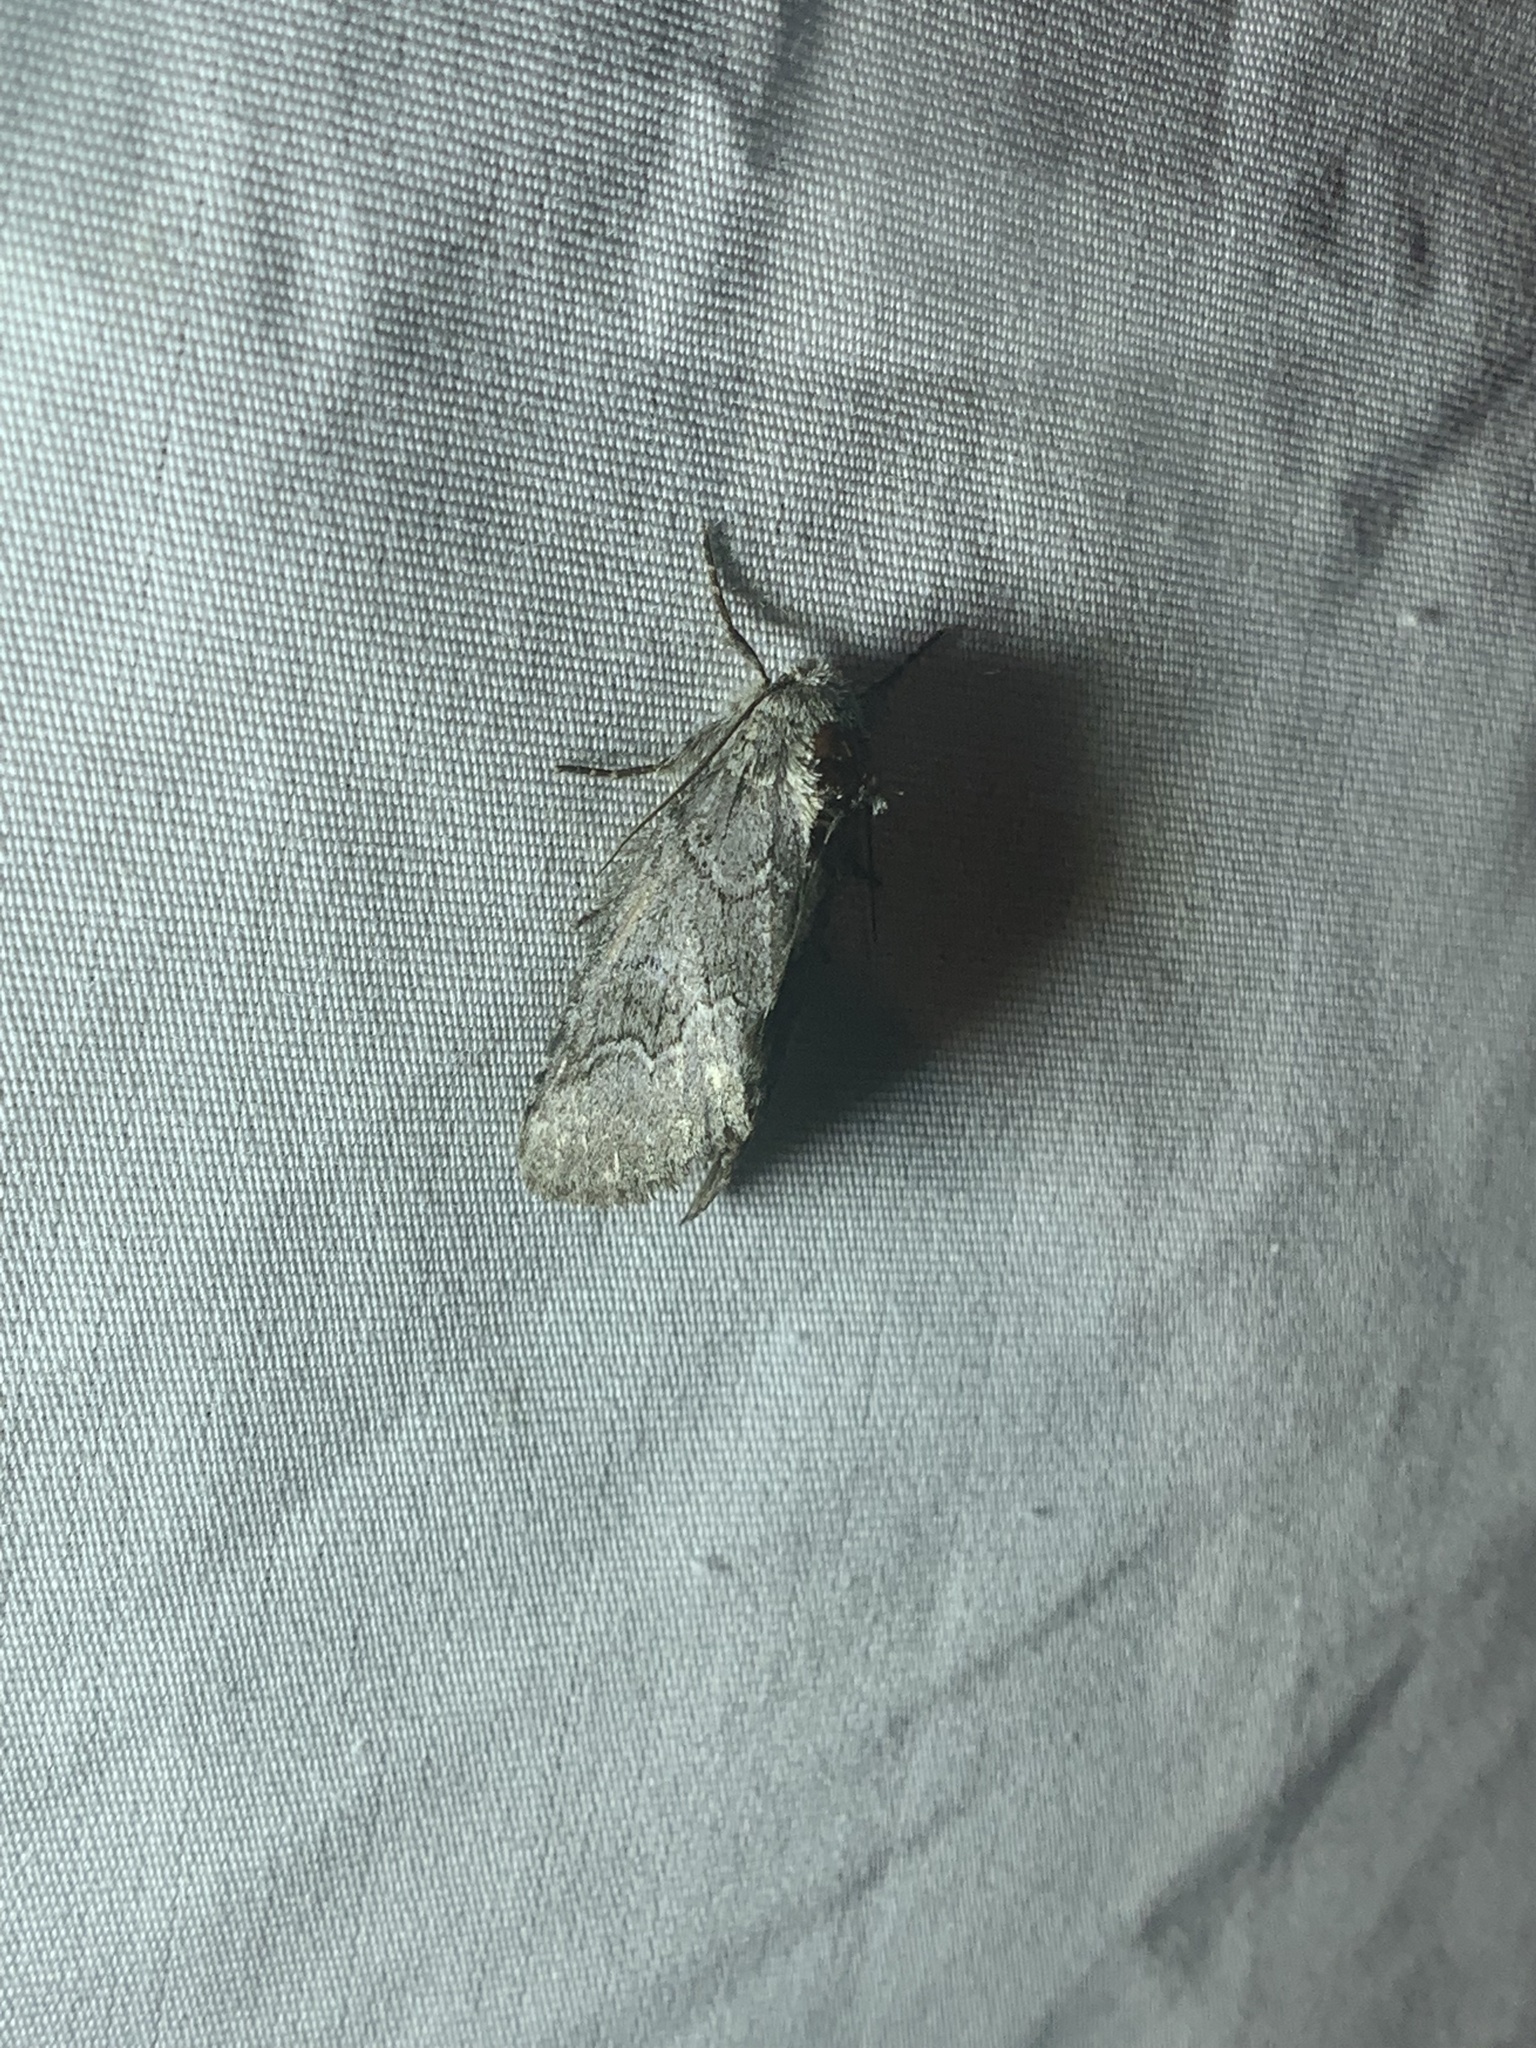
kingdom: Animalia
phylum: Arthropoda
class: Insecta
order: Lepidoptera
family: Notodontidae
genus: Lochmaeus
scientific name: Lochmaeus bilineata
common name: Double-lined prominent
